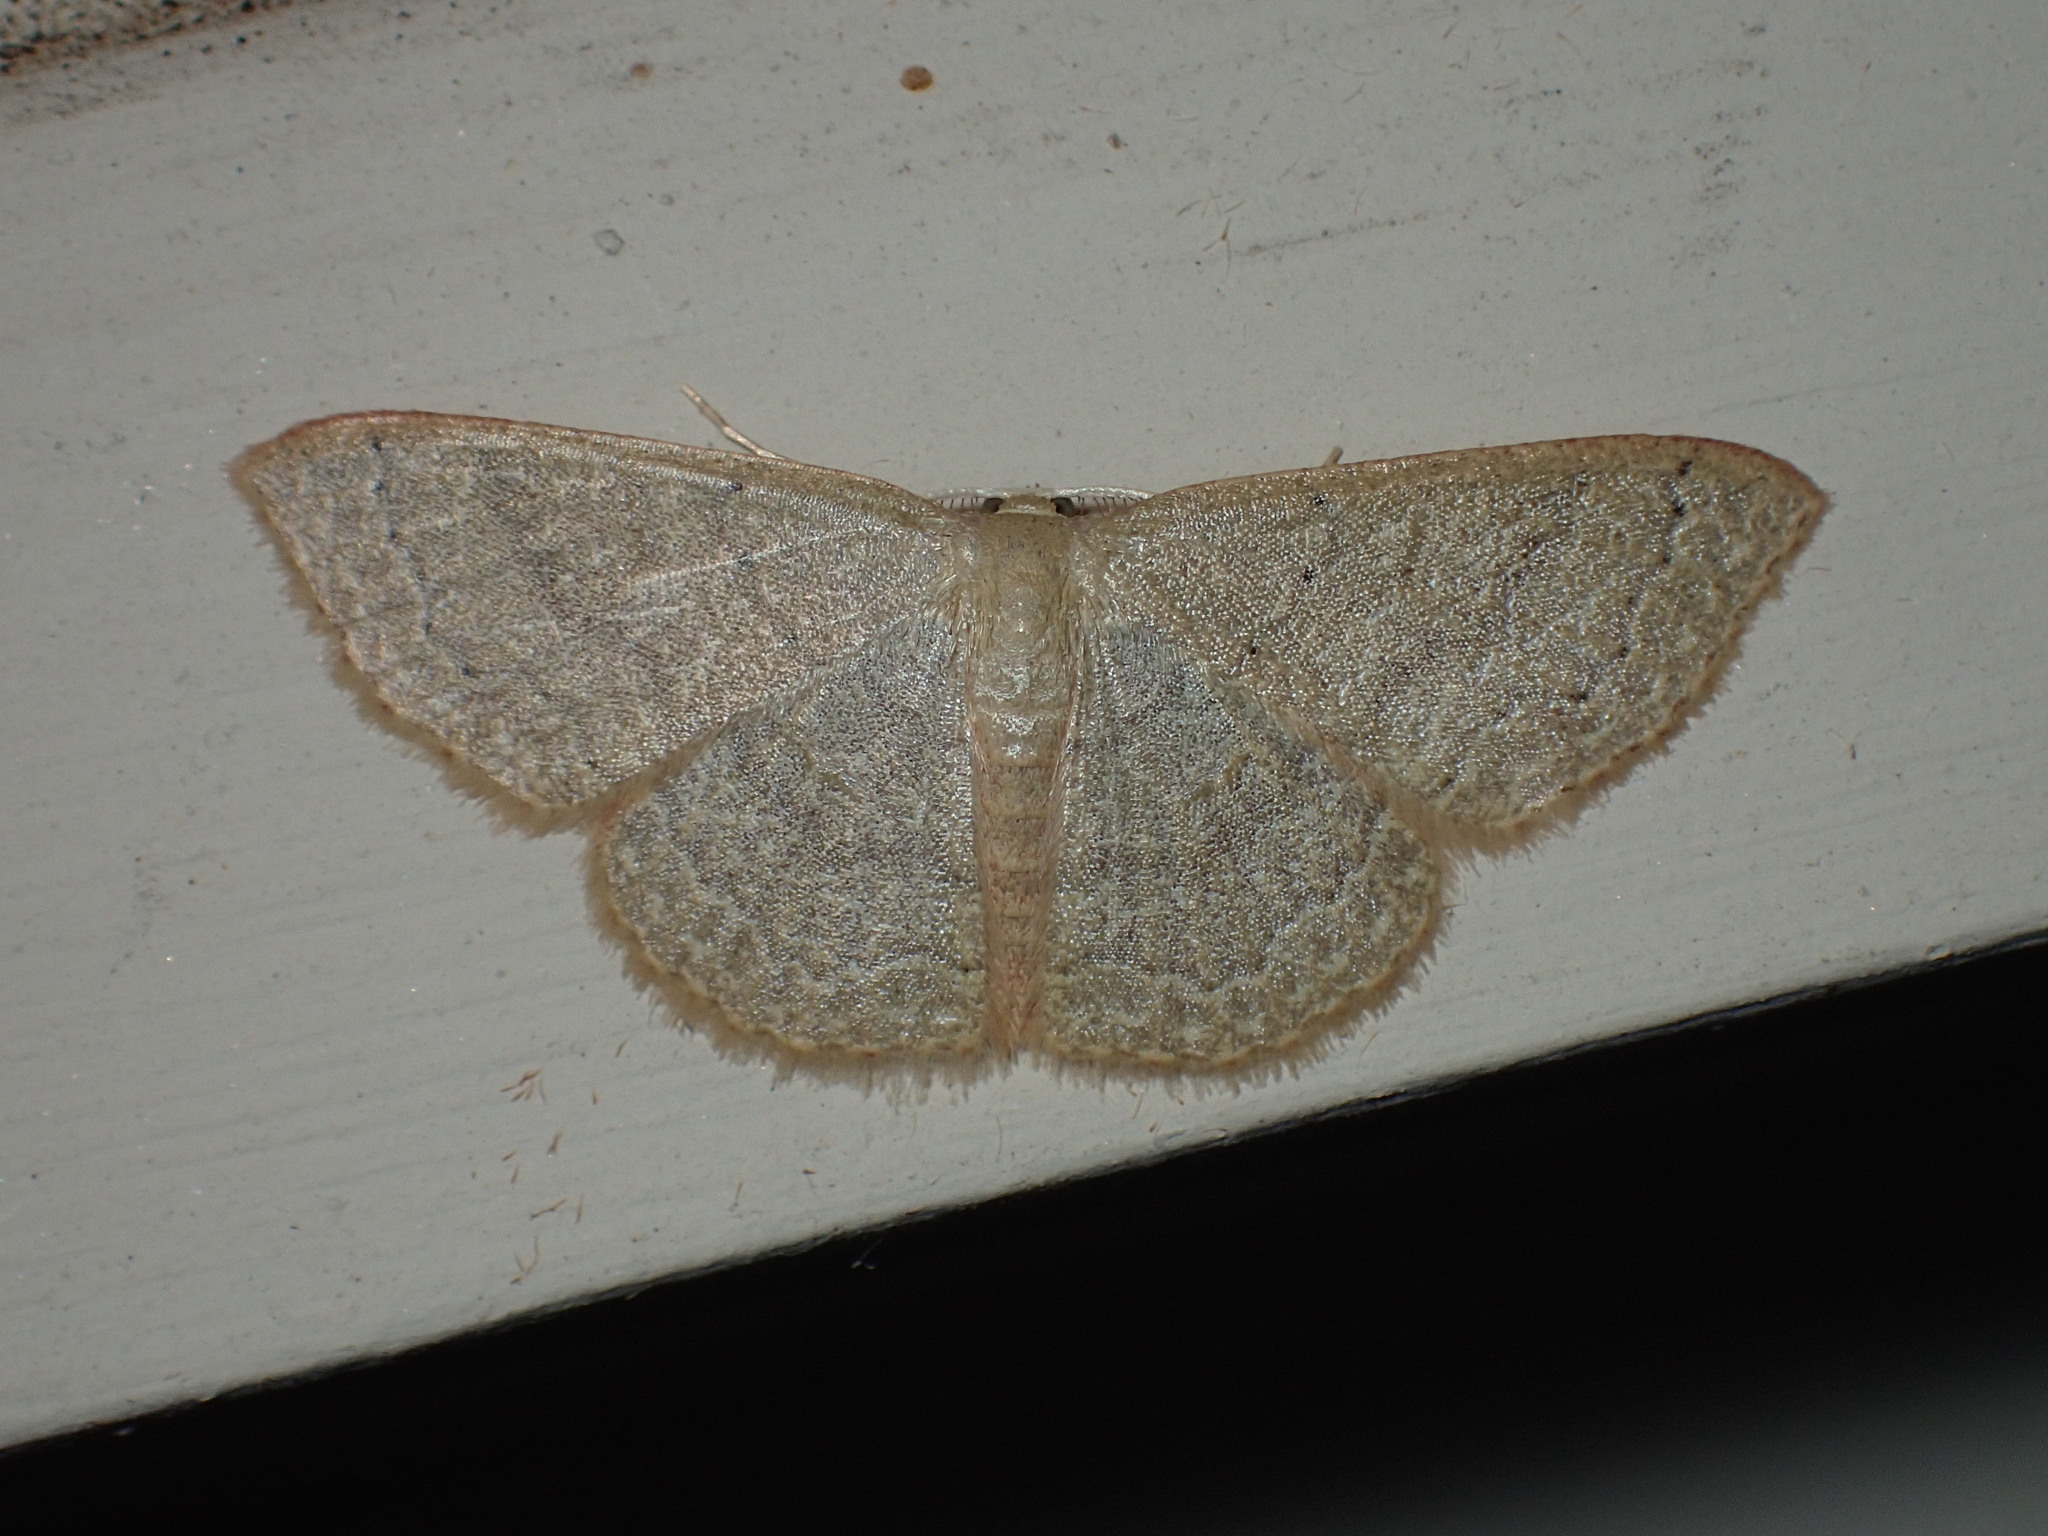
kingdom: Animalia
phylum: Arthropoda
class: Insecta
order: Lepidoptera
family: Geometridae
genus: Pleuroprucha
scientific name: Pleuroprucha insulsaria
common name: Common tan wave
